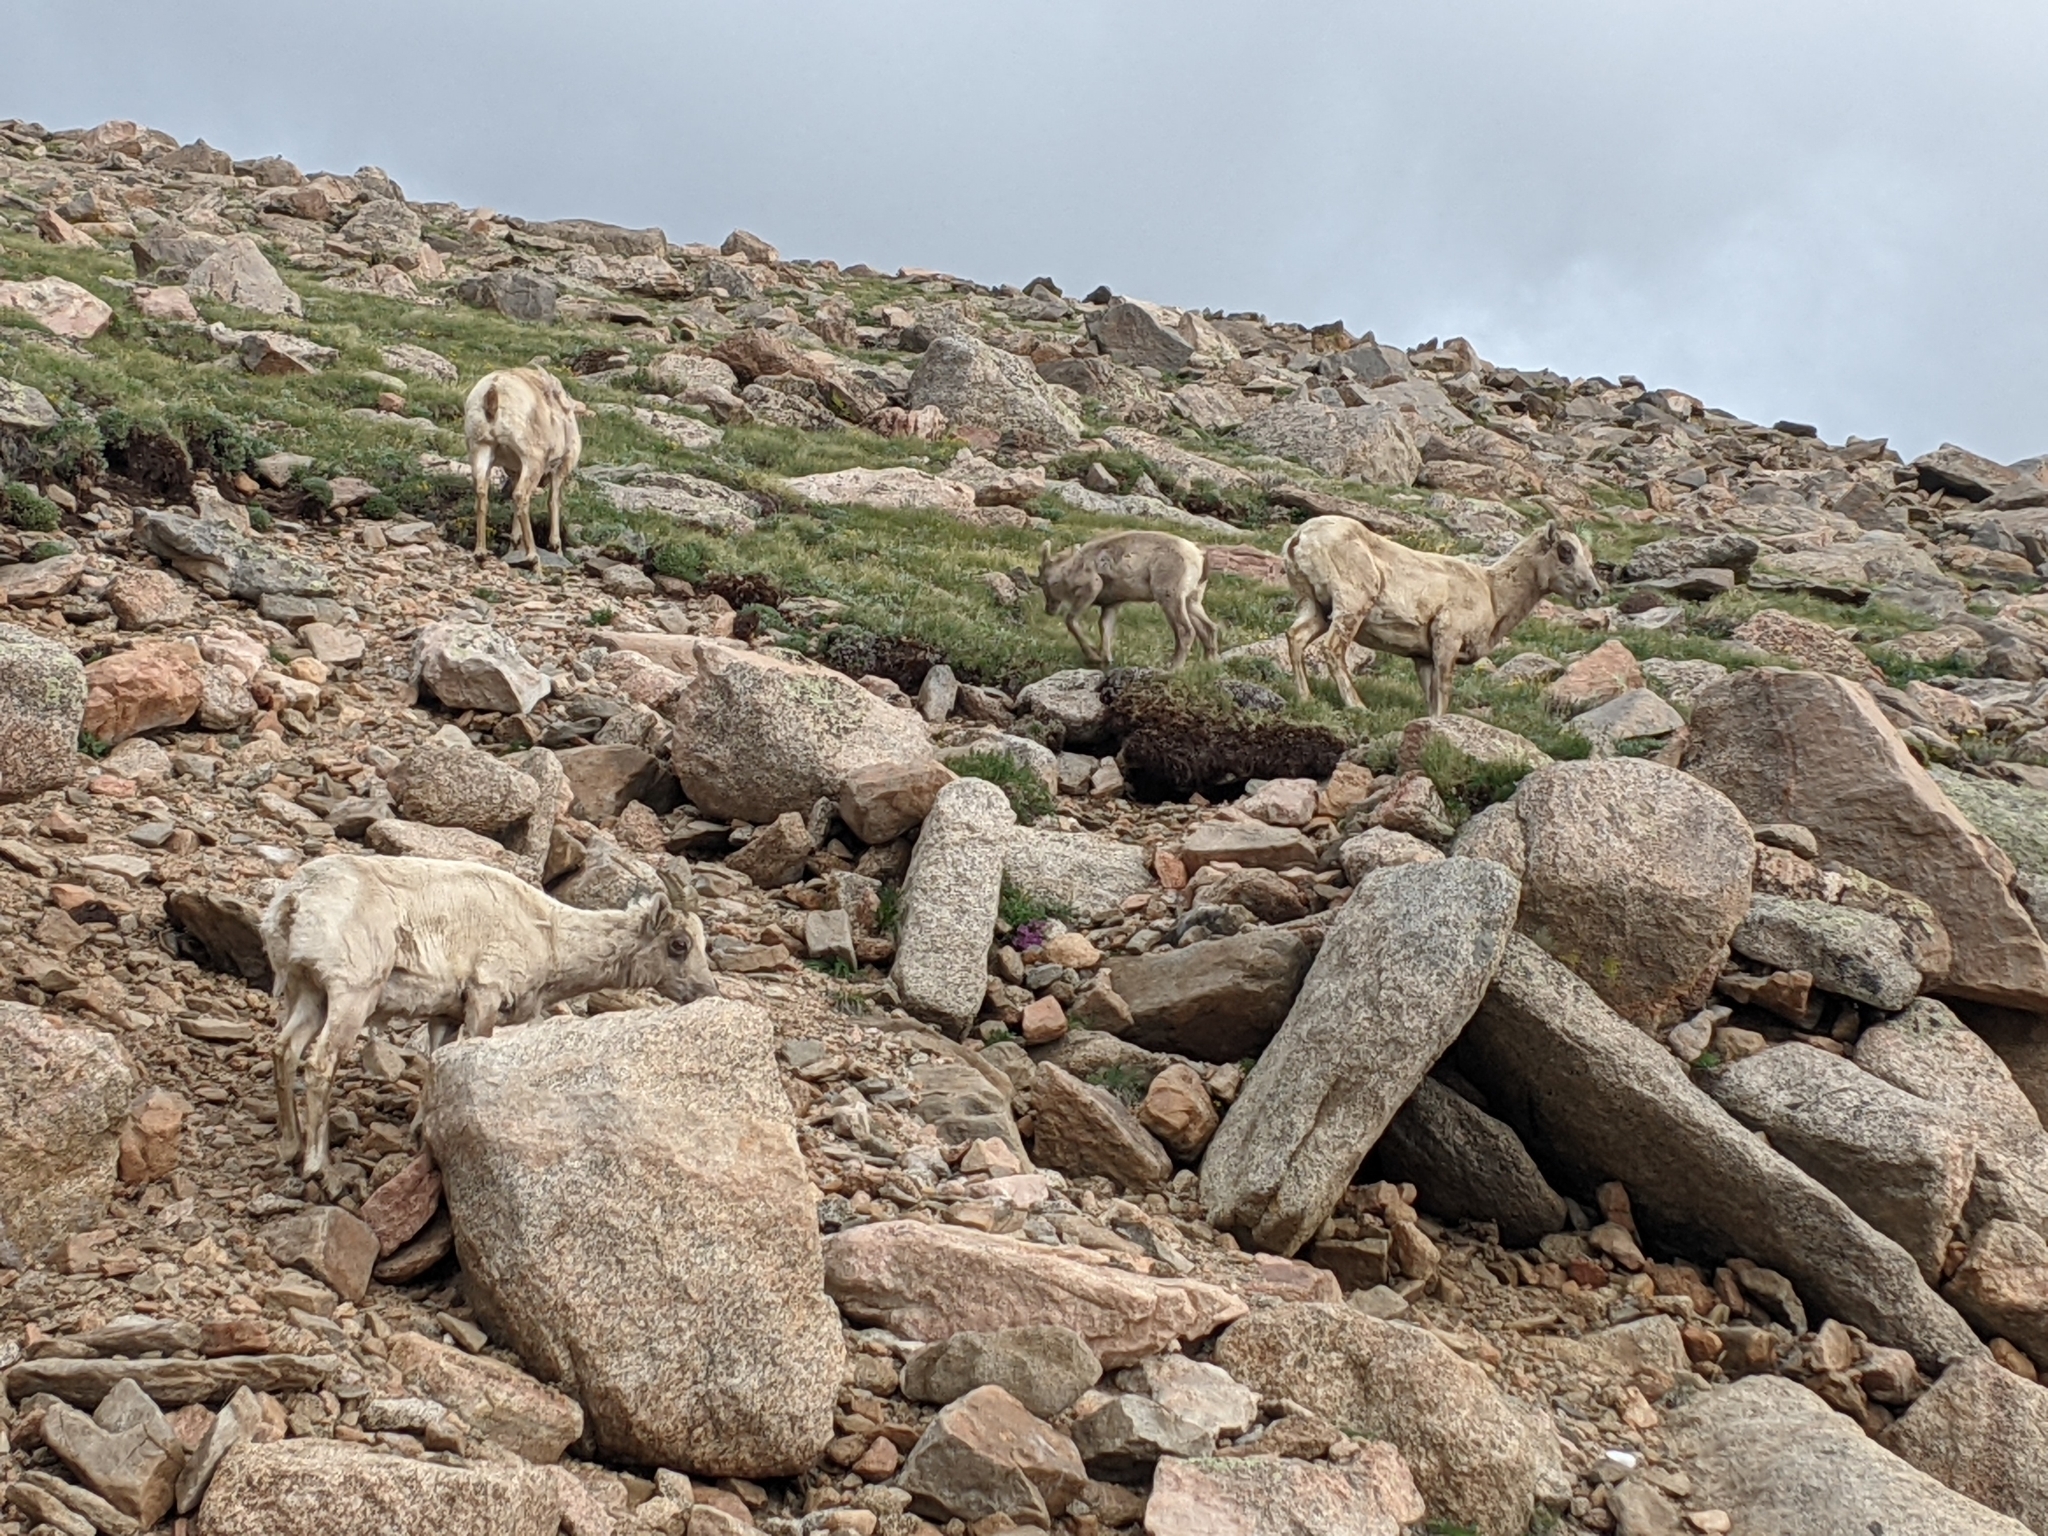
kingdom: Animalia
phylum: Chordata
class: Mammalia
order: Artiodactyla
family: Bovidae
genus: Ovis
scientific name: Ovis canadensis
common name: Bighorn sheep
